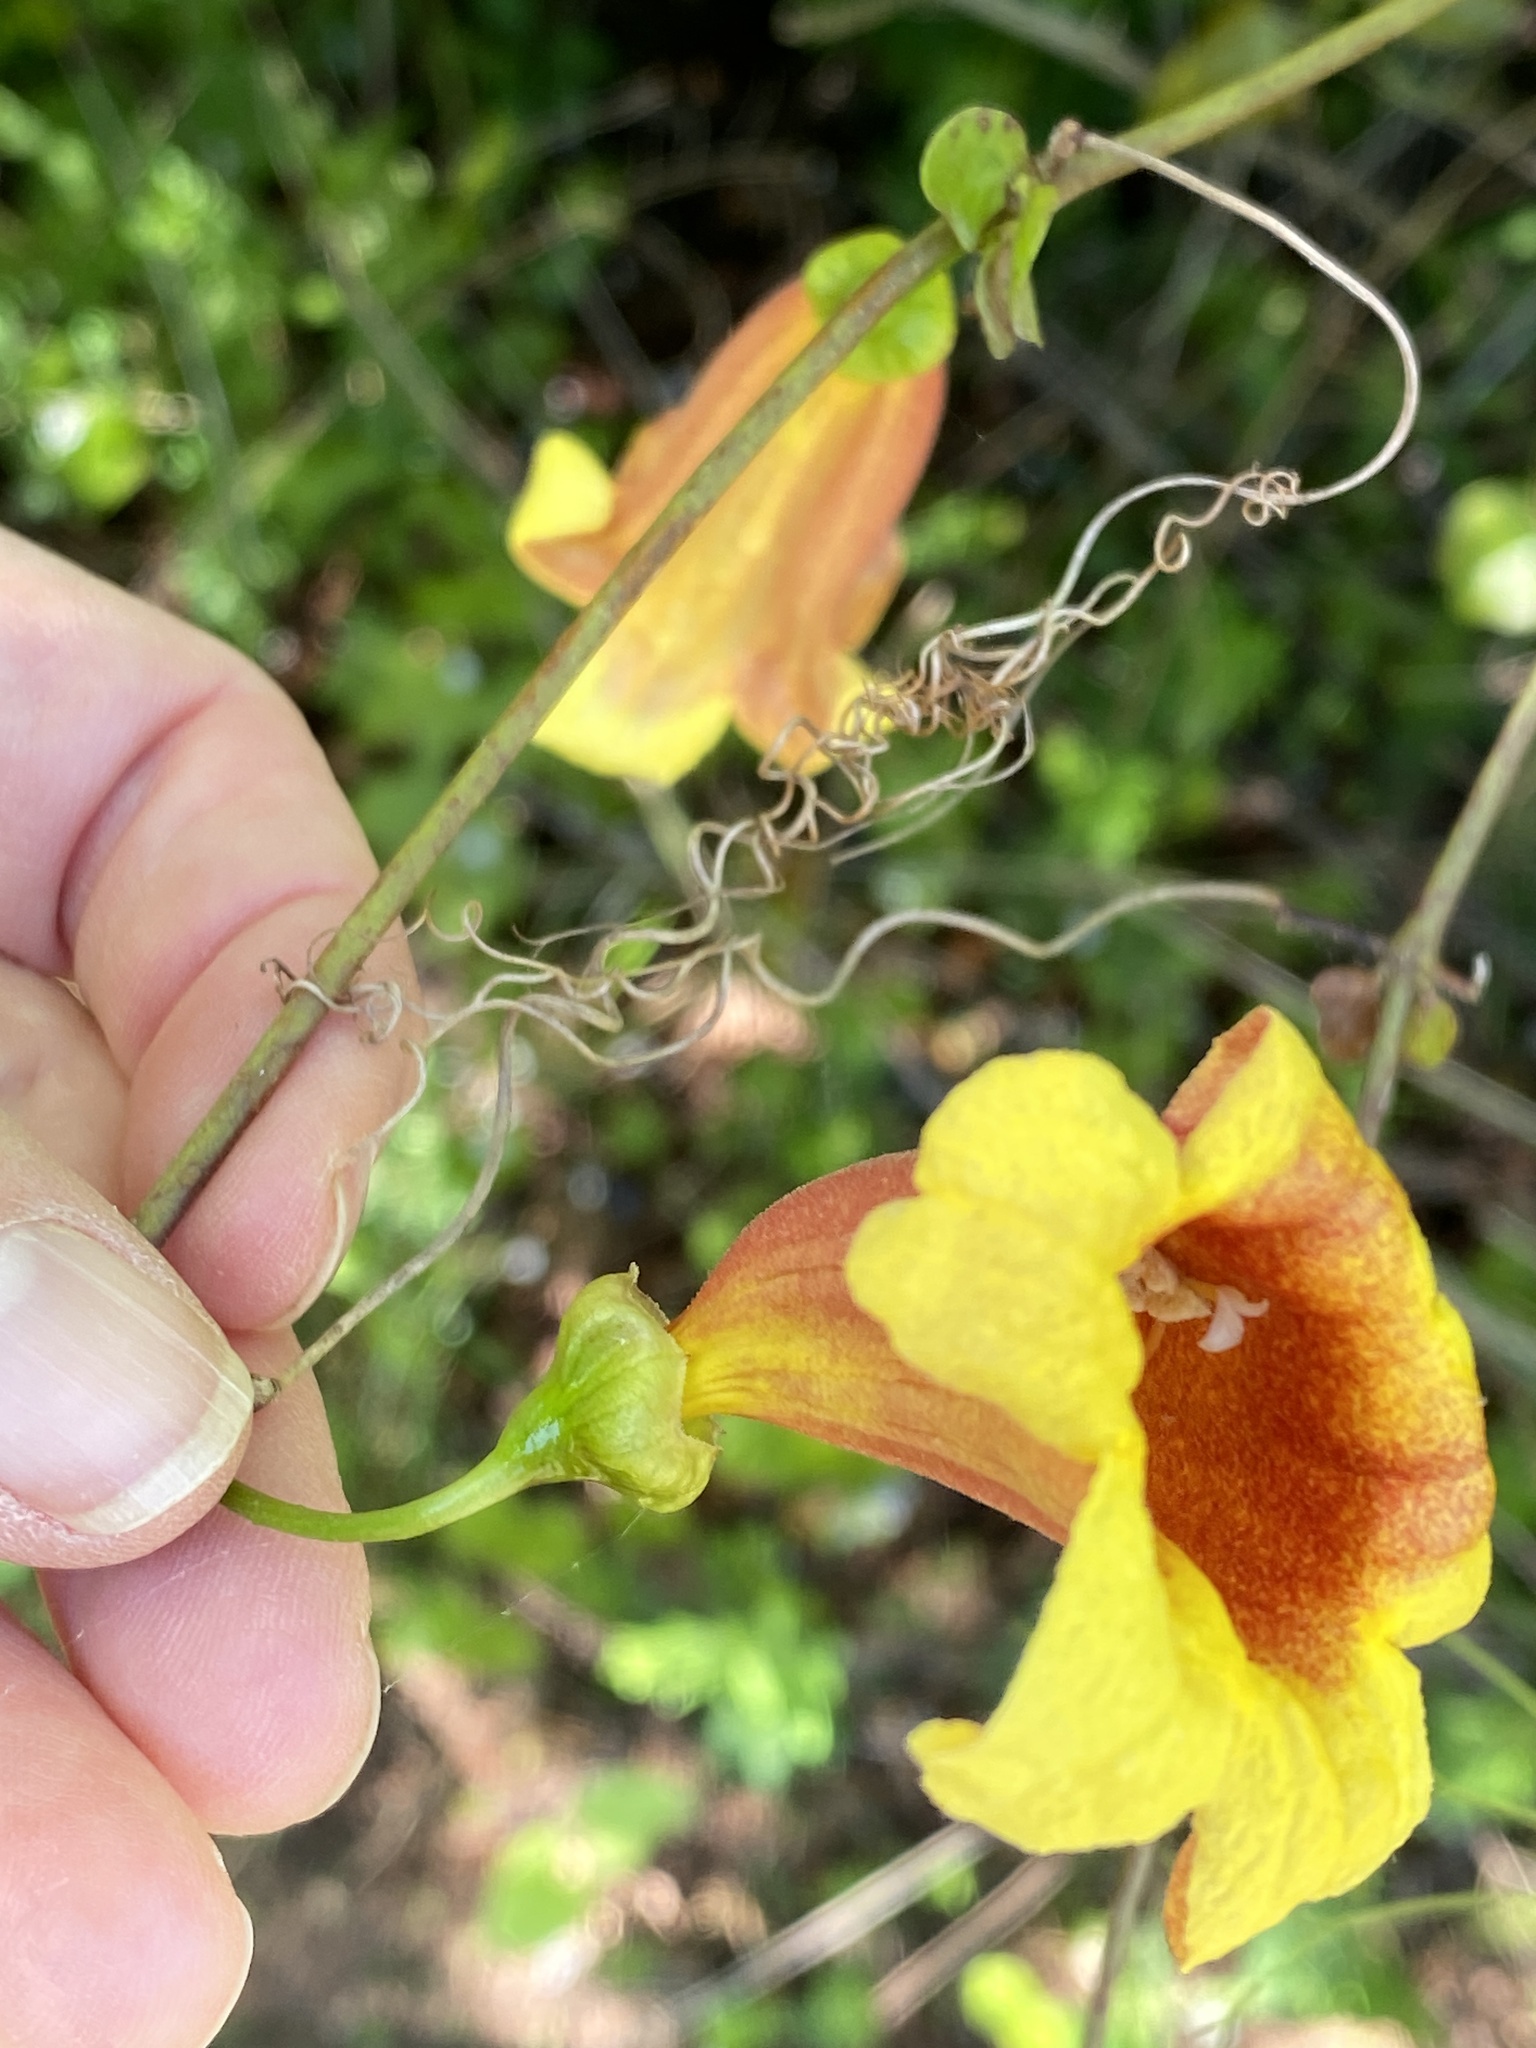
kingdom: Plantae
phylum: Tracheophyta
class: Magnoliopsida
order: Lamiales
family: Bignoniaceae
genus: Bignonia
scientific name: Bignonia capreolata
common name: Crossvine
